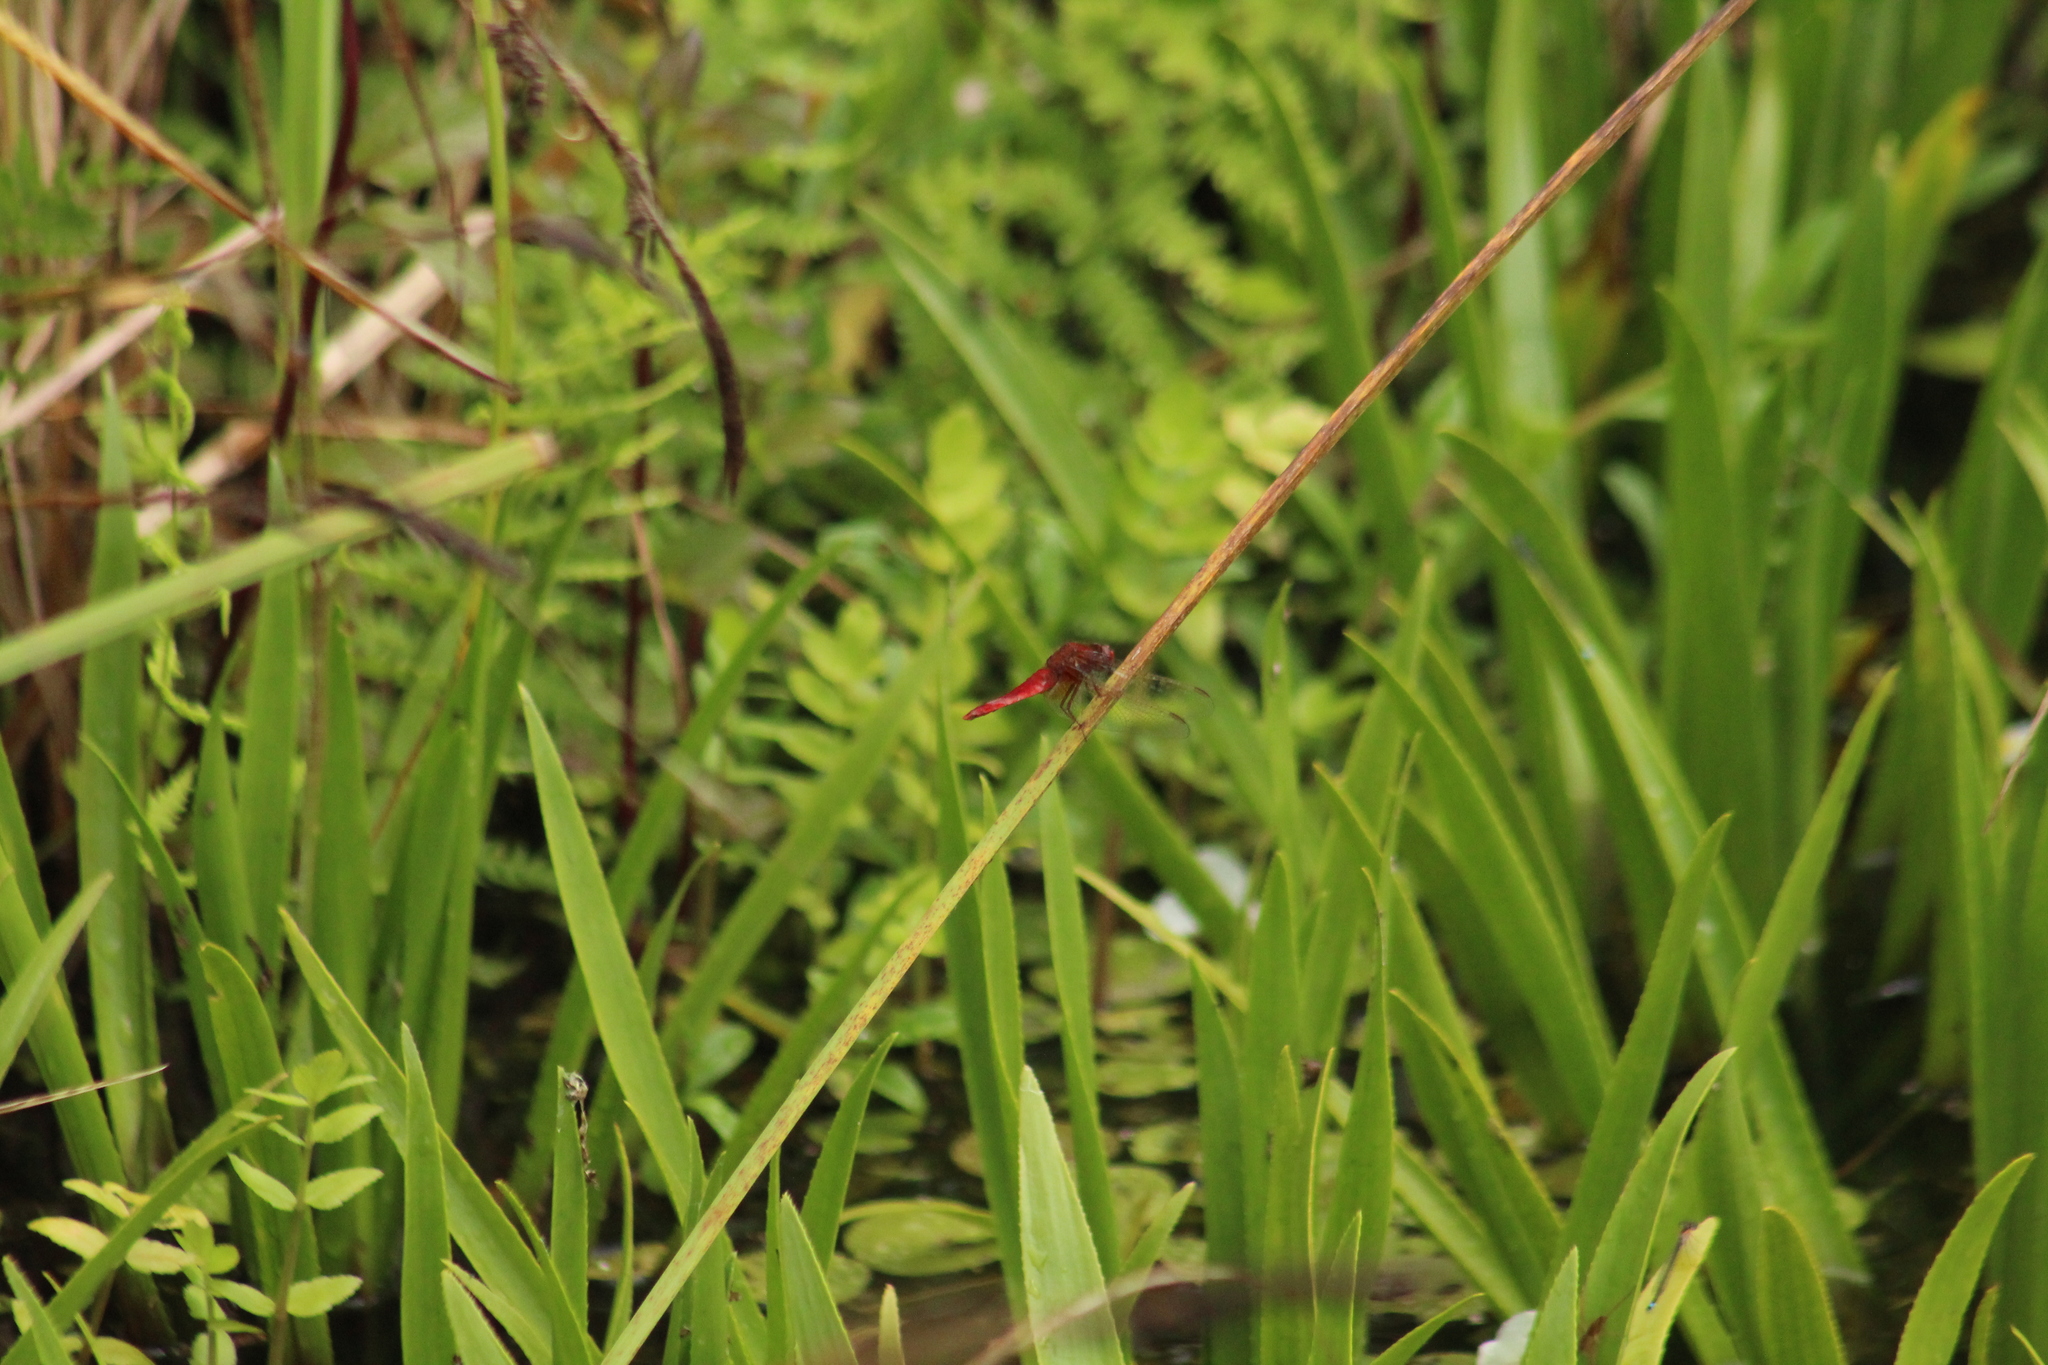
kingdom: Animalia
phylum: Arthropoda
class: Insecta
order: Odonata
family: Libellulidae
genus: Crocothemis
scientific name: Crocothemis erythraea
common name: Scarlet dragonfly
